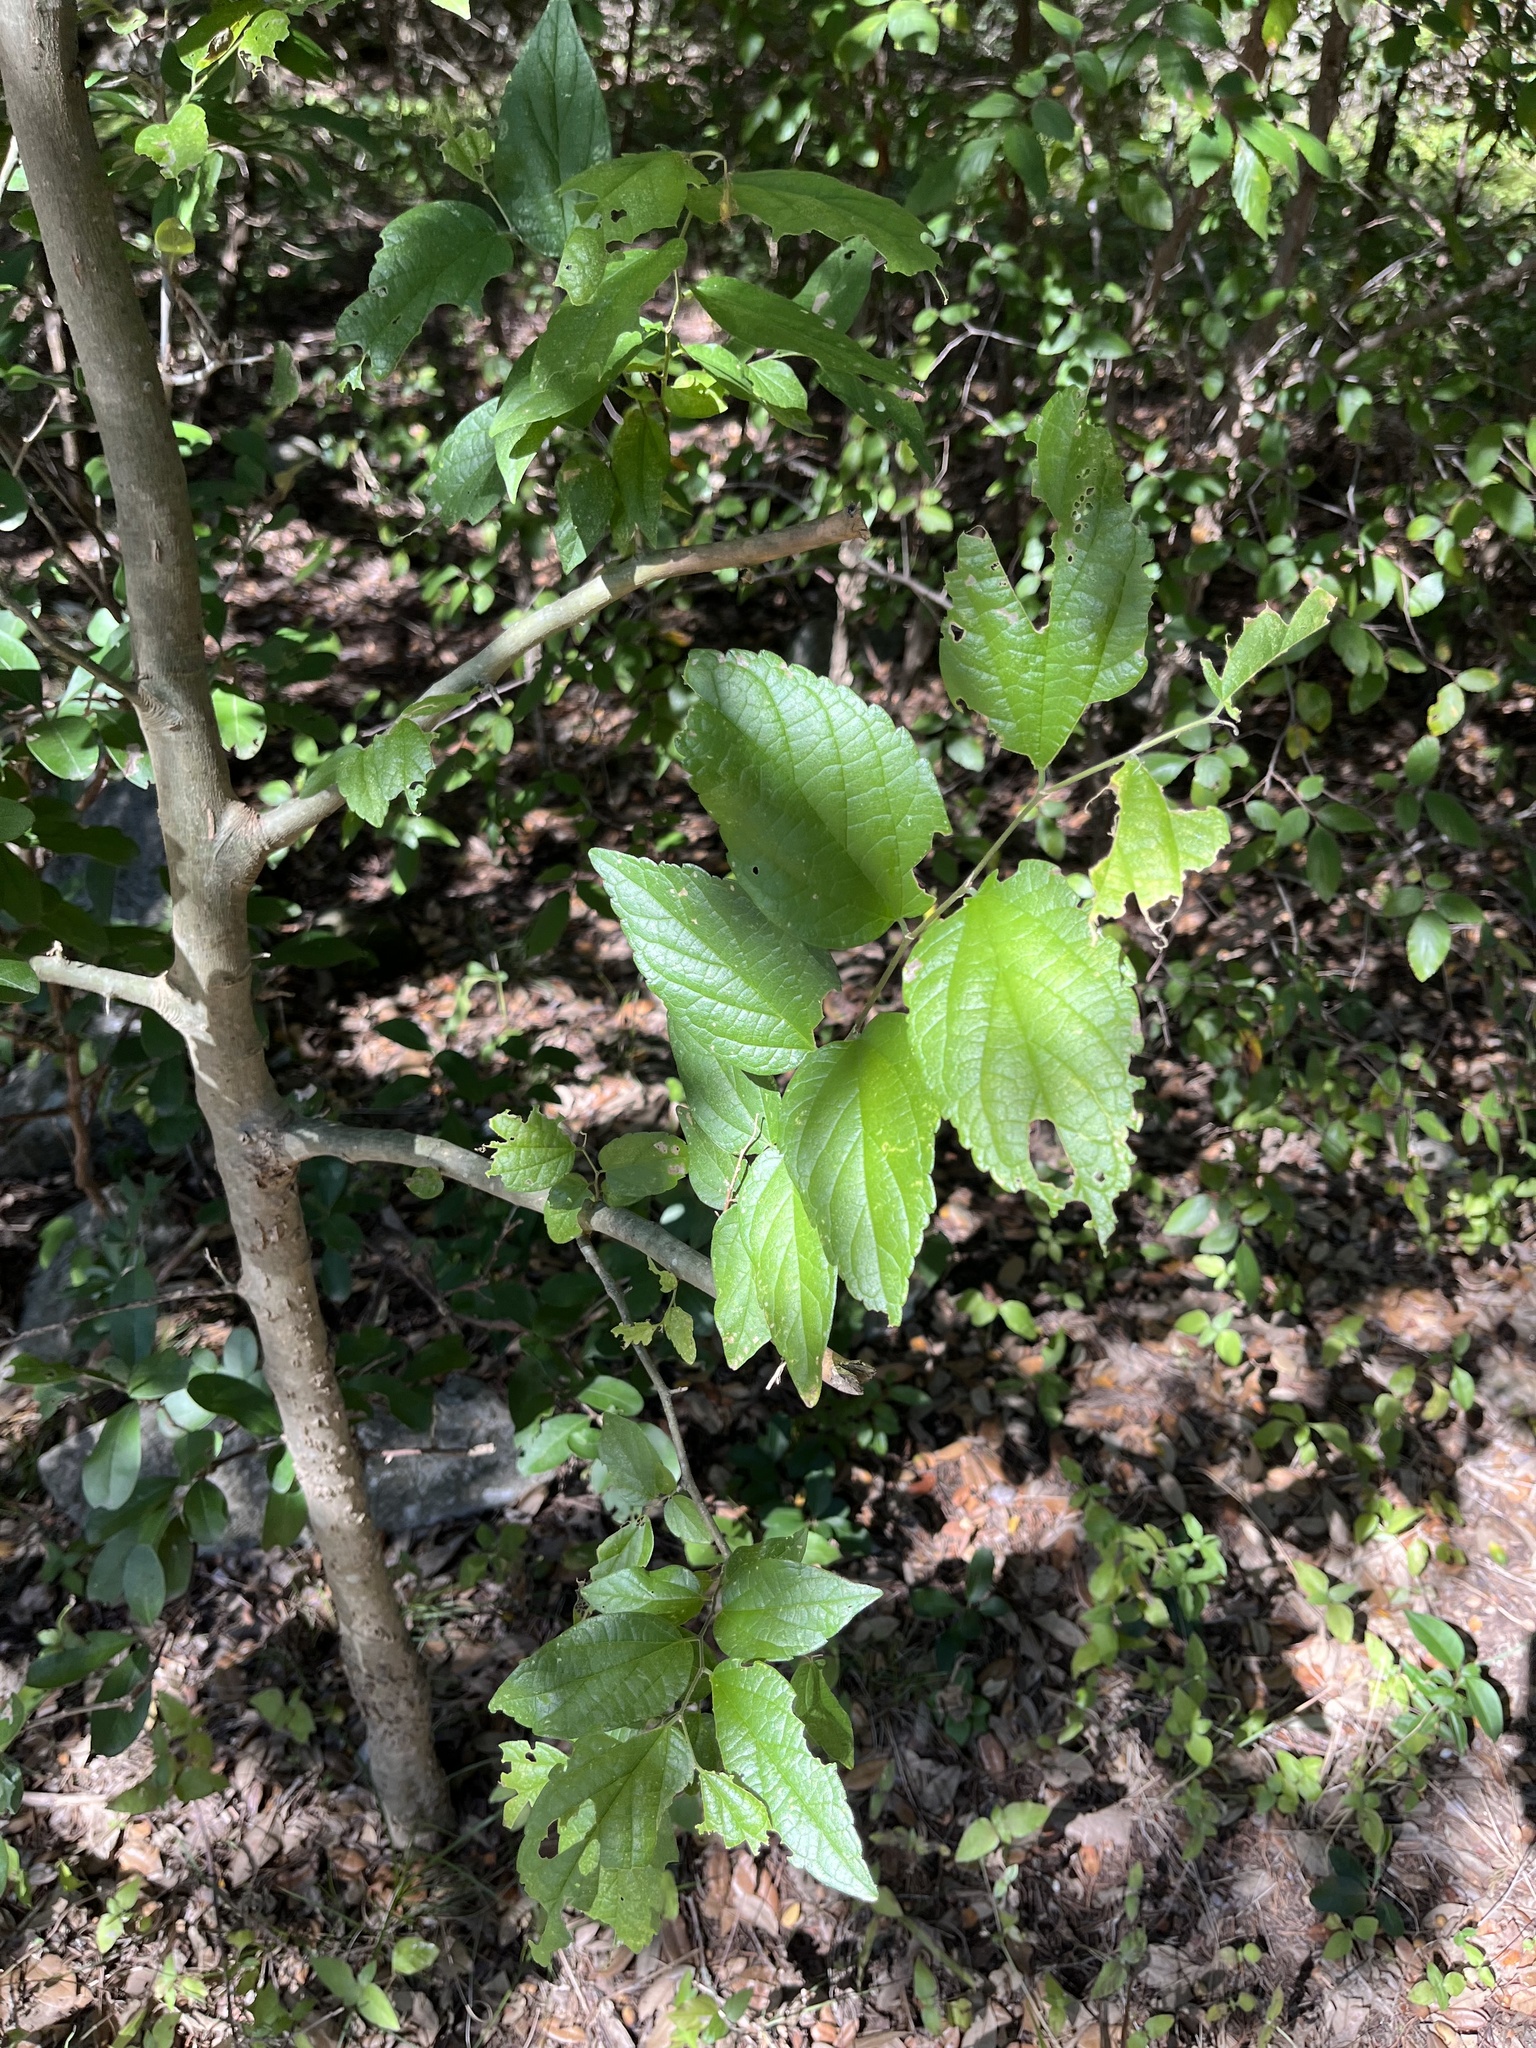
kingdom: Plantae
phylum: Tracheophyta
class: Magnoliopsida
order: Rosales
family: Cannabaceae
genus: Celtis
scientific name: Celtis reticulata
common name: Netleaf hackberry
